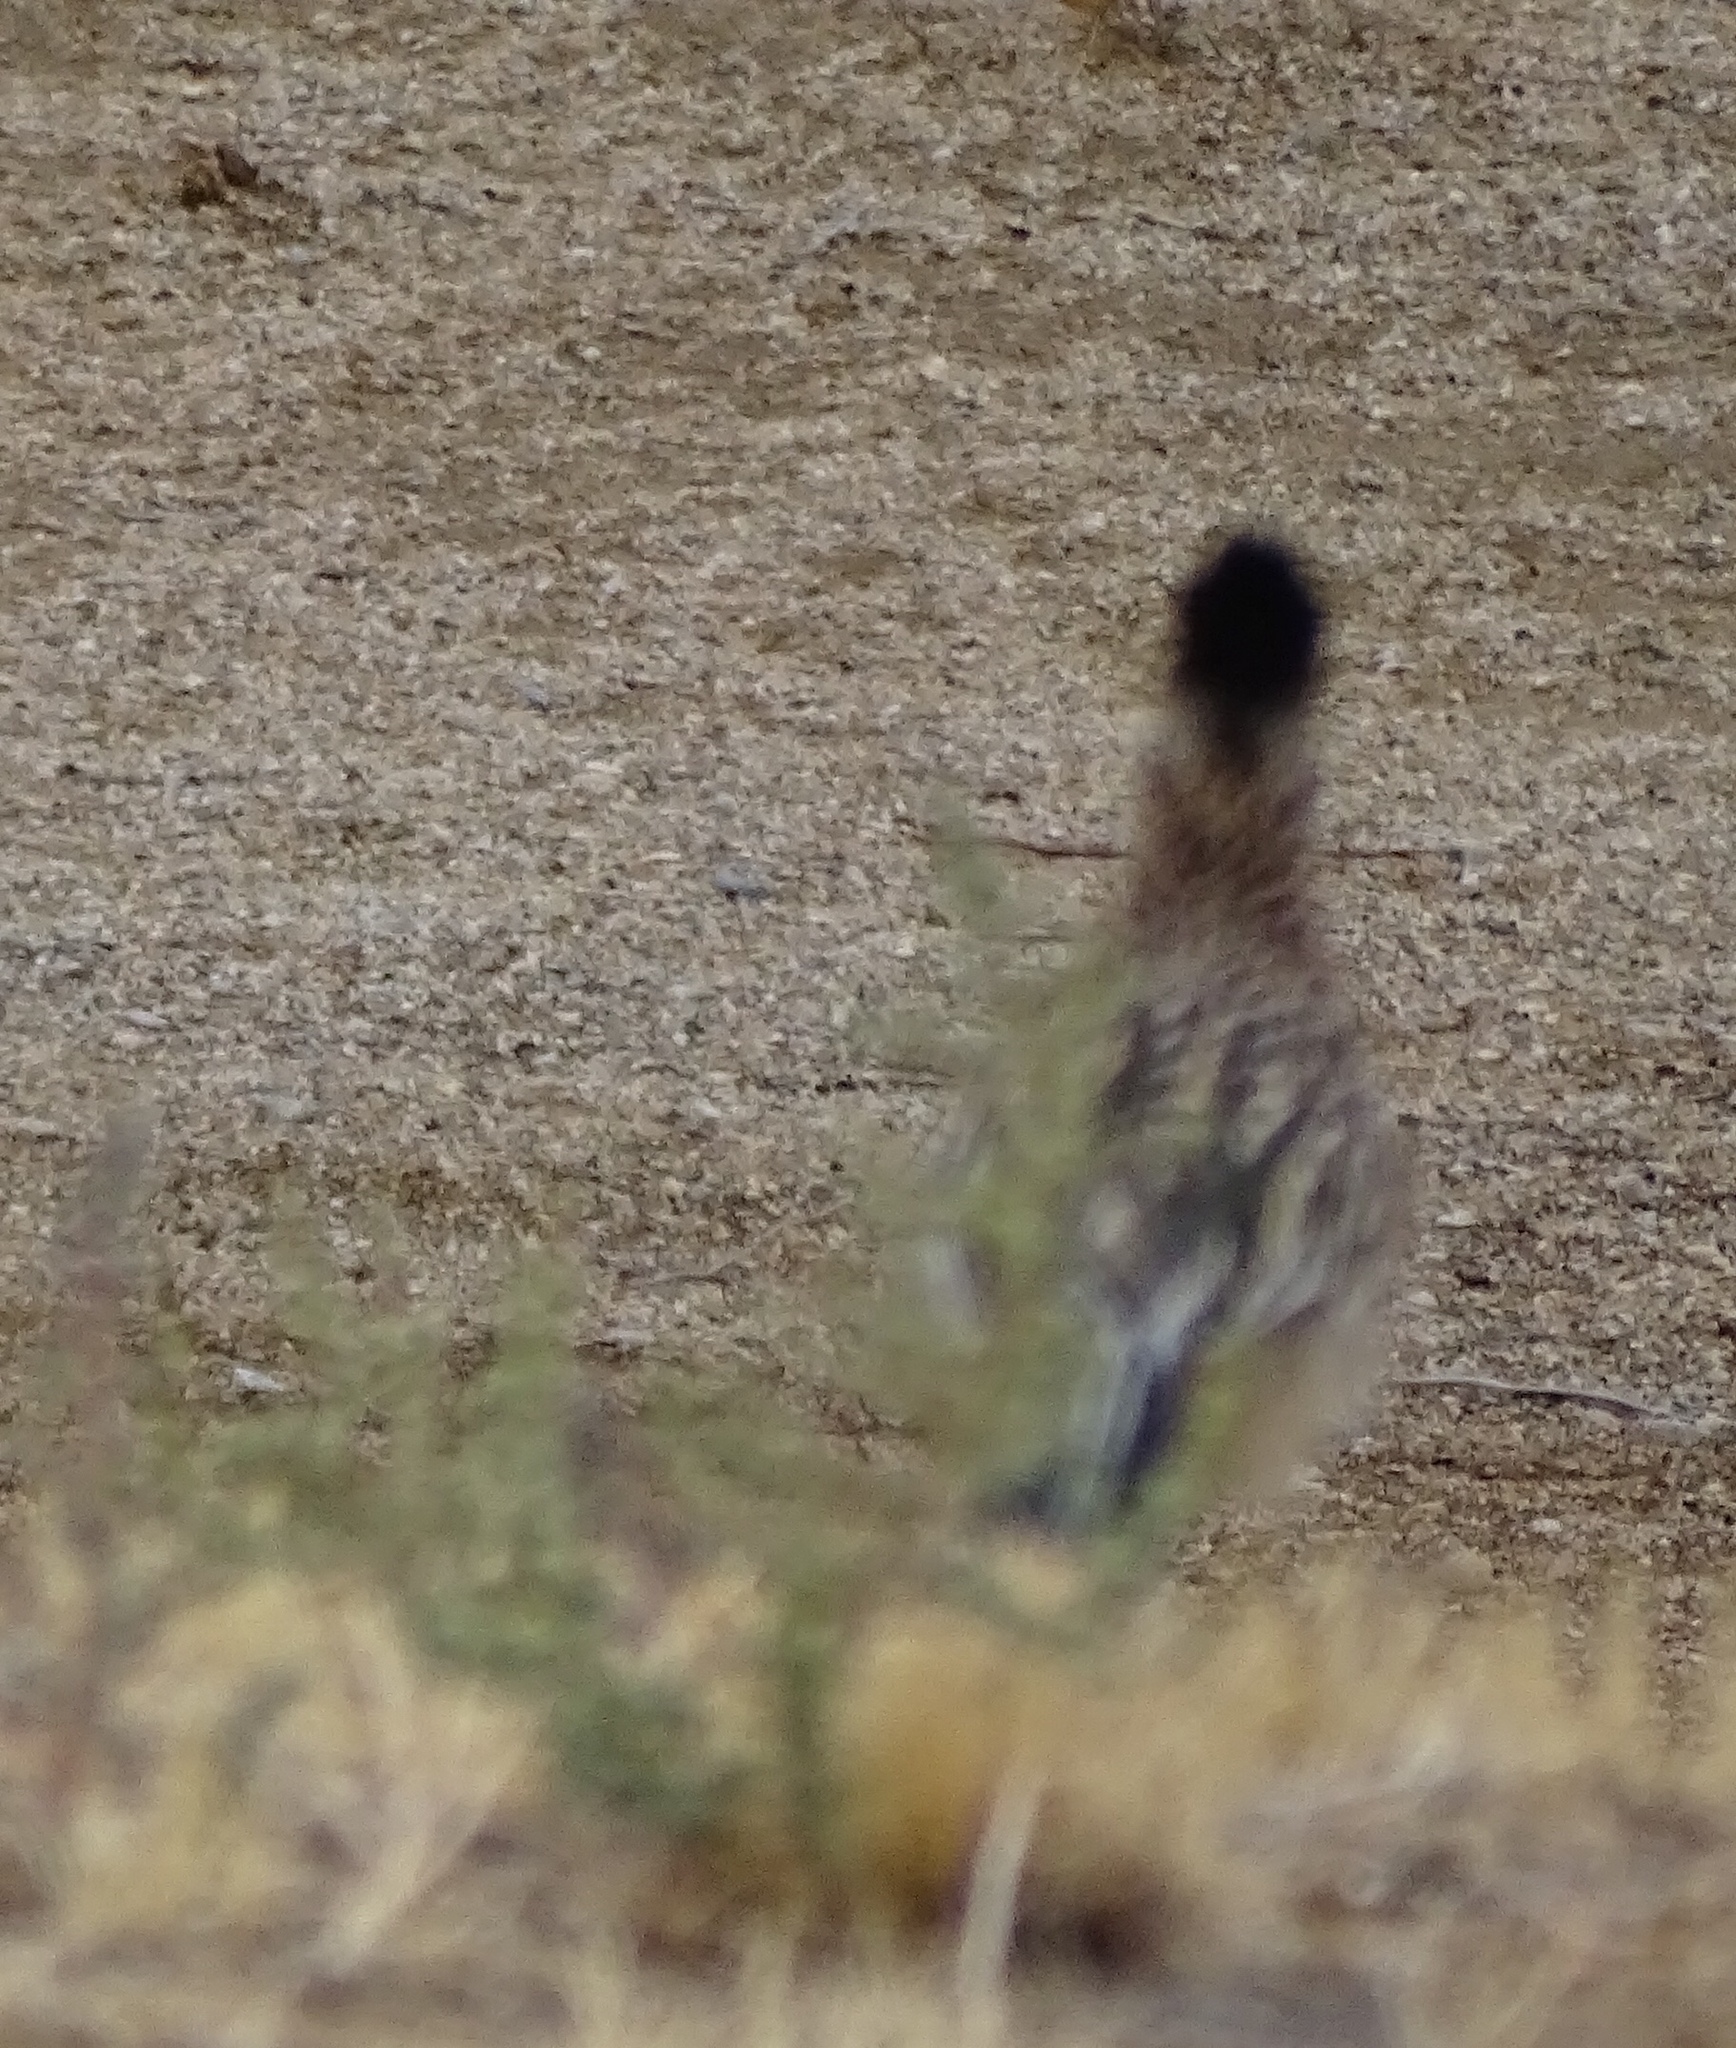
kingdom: Animalia
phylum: Chordata
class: Aves
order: Cuculiformes
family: Cuculidae
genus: Geococcyx
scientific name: Geococcyx californianus
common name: Greater roadrunner
